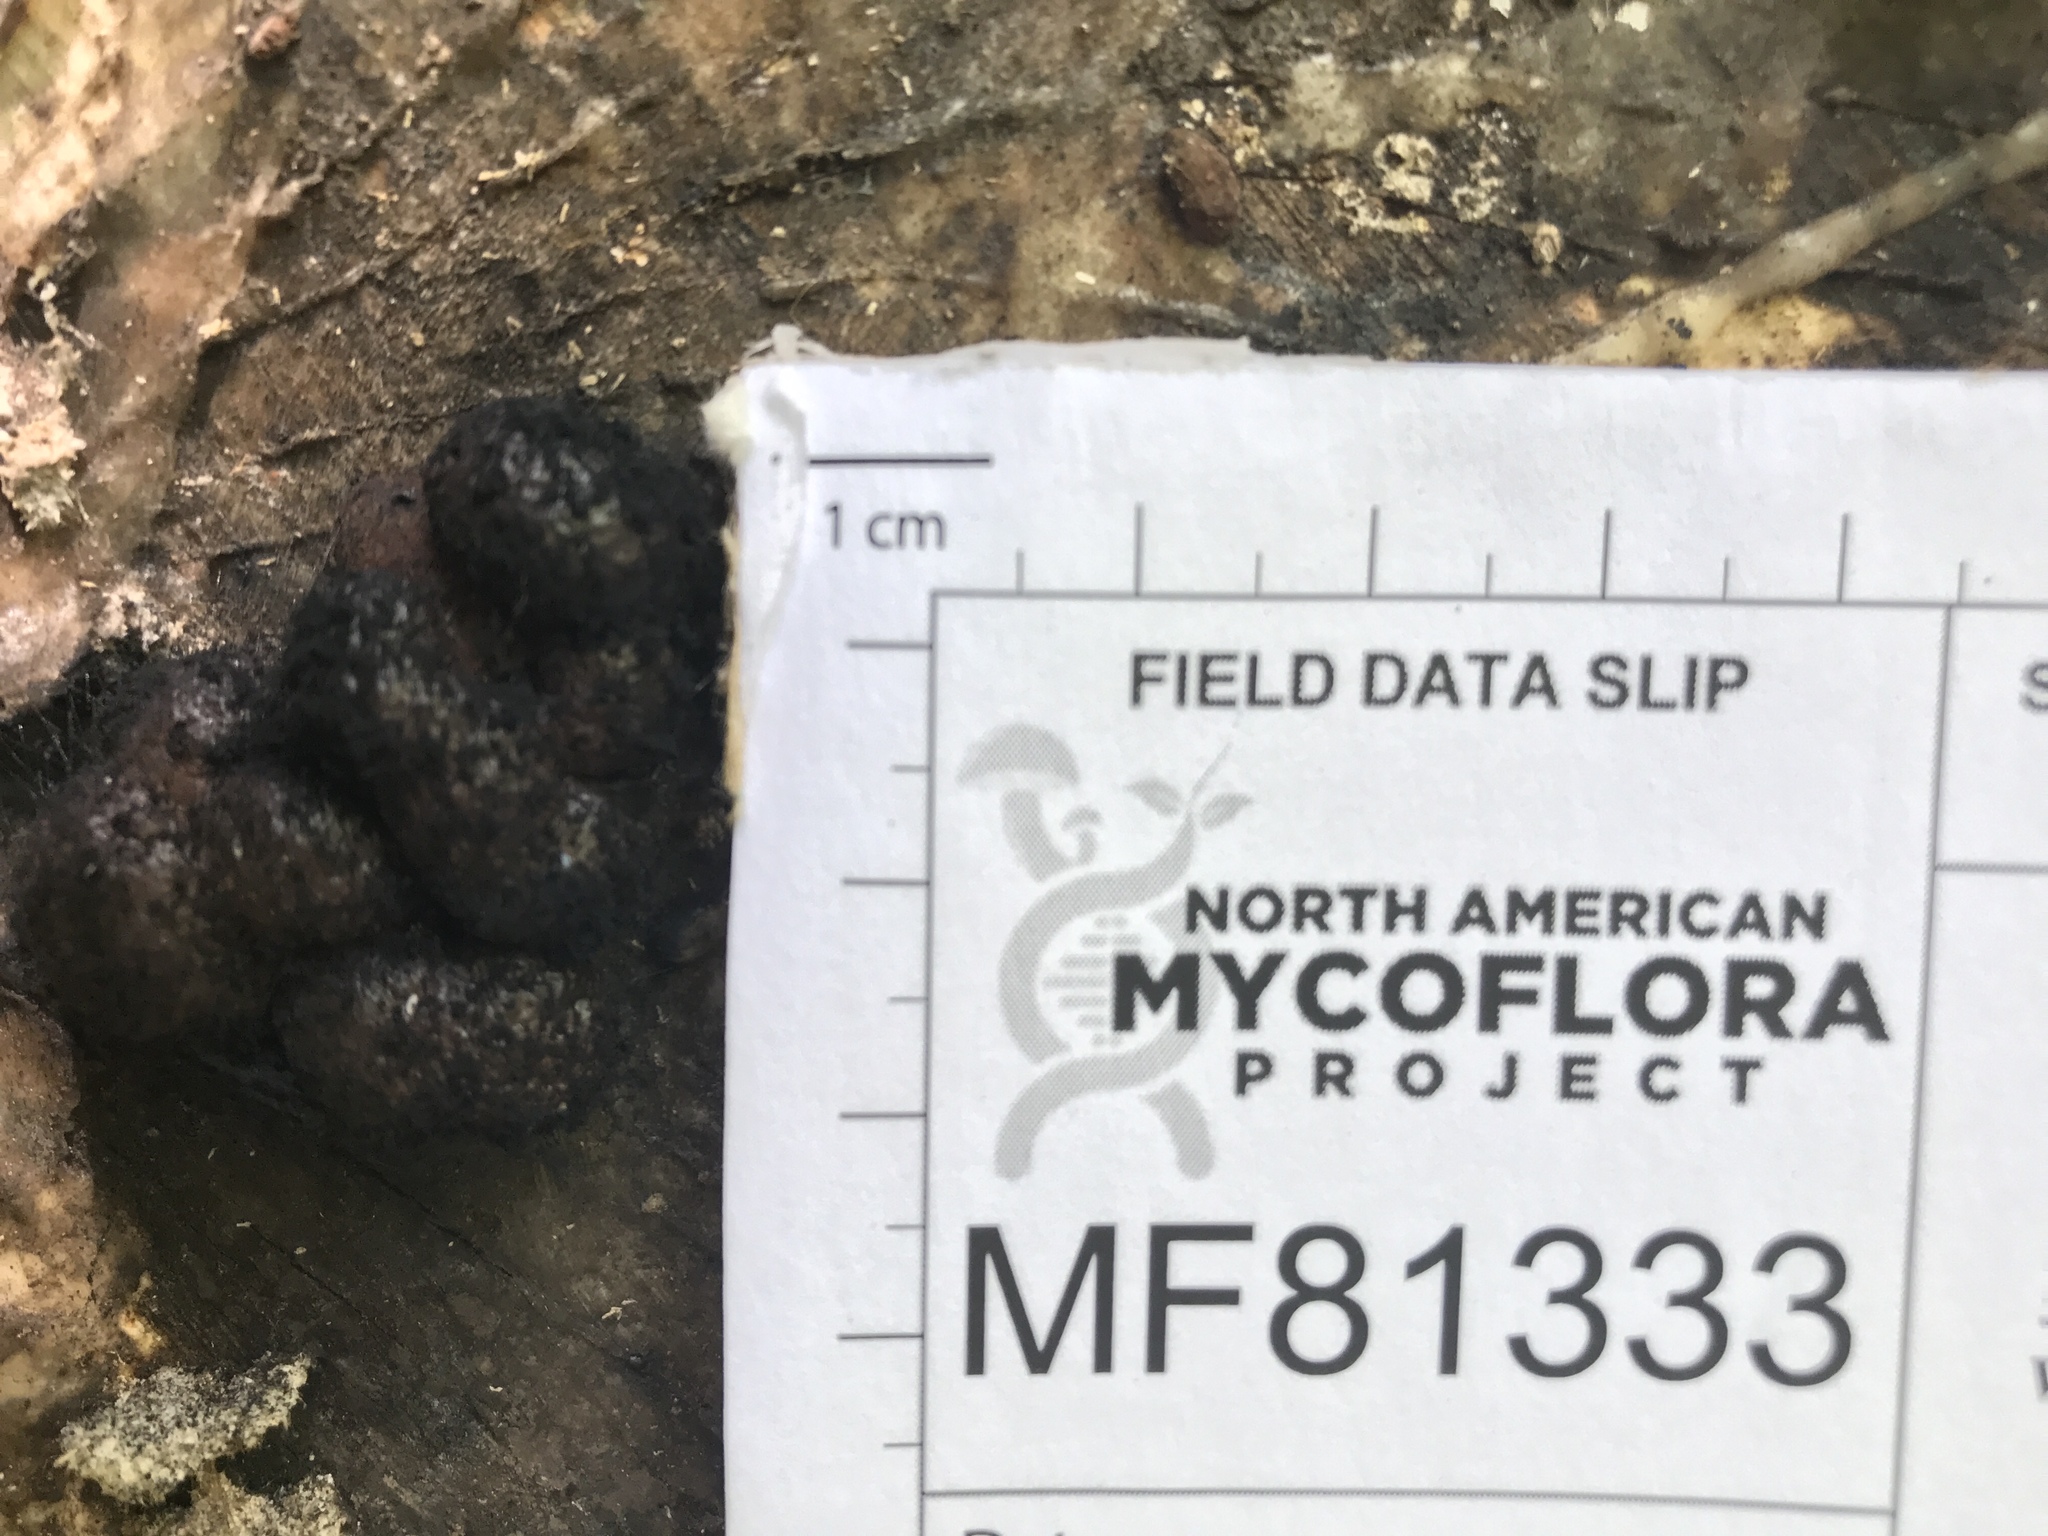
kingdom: Fungi
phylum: Ascomycota
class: Sordariomycetes
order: Xylariales
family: Hypoxylaceae
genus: Daldinia
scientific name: Daldinia childiae
